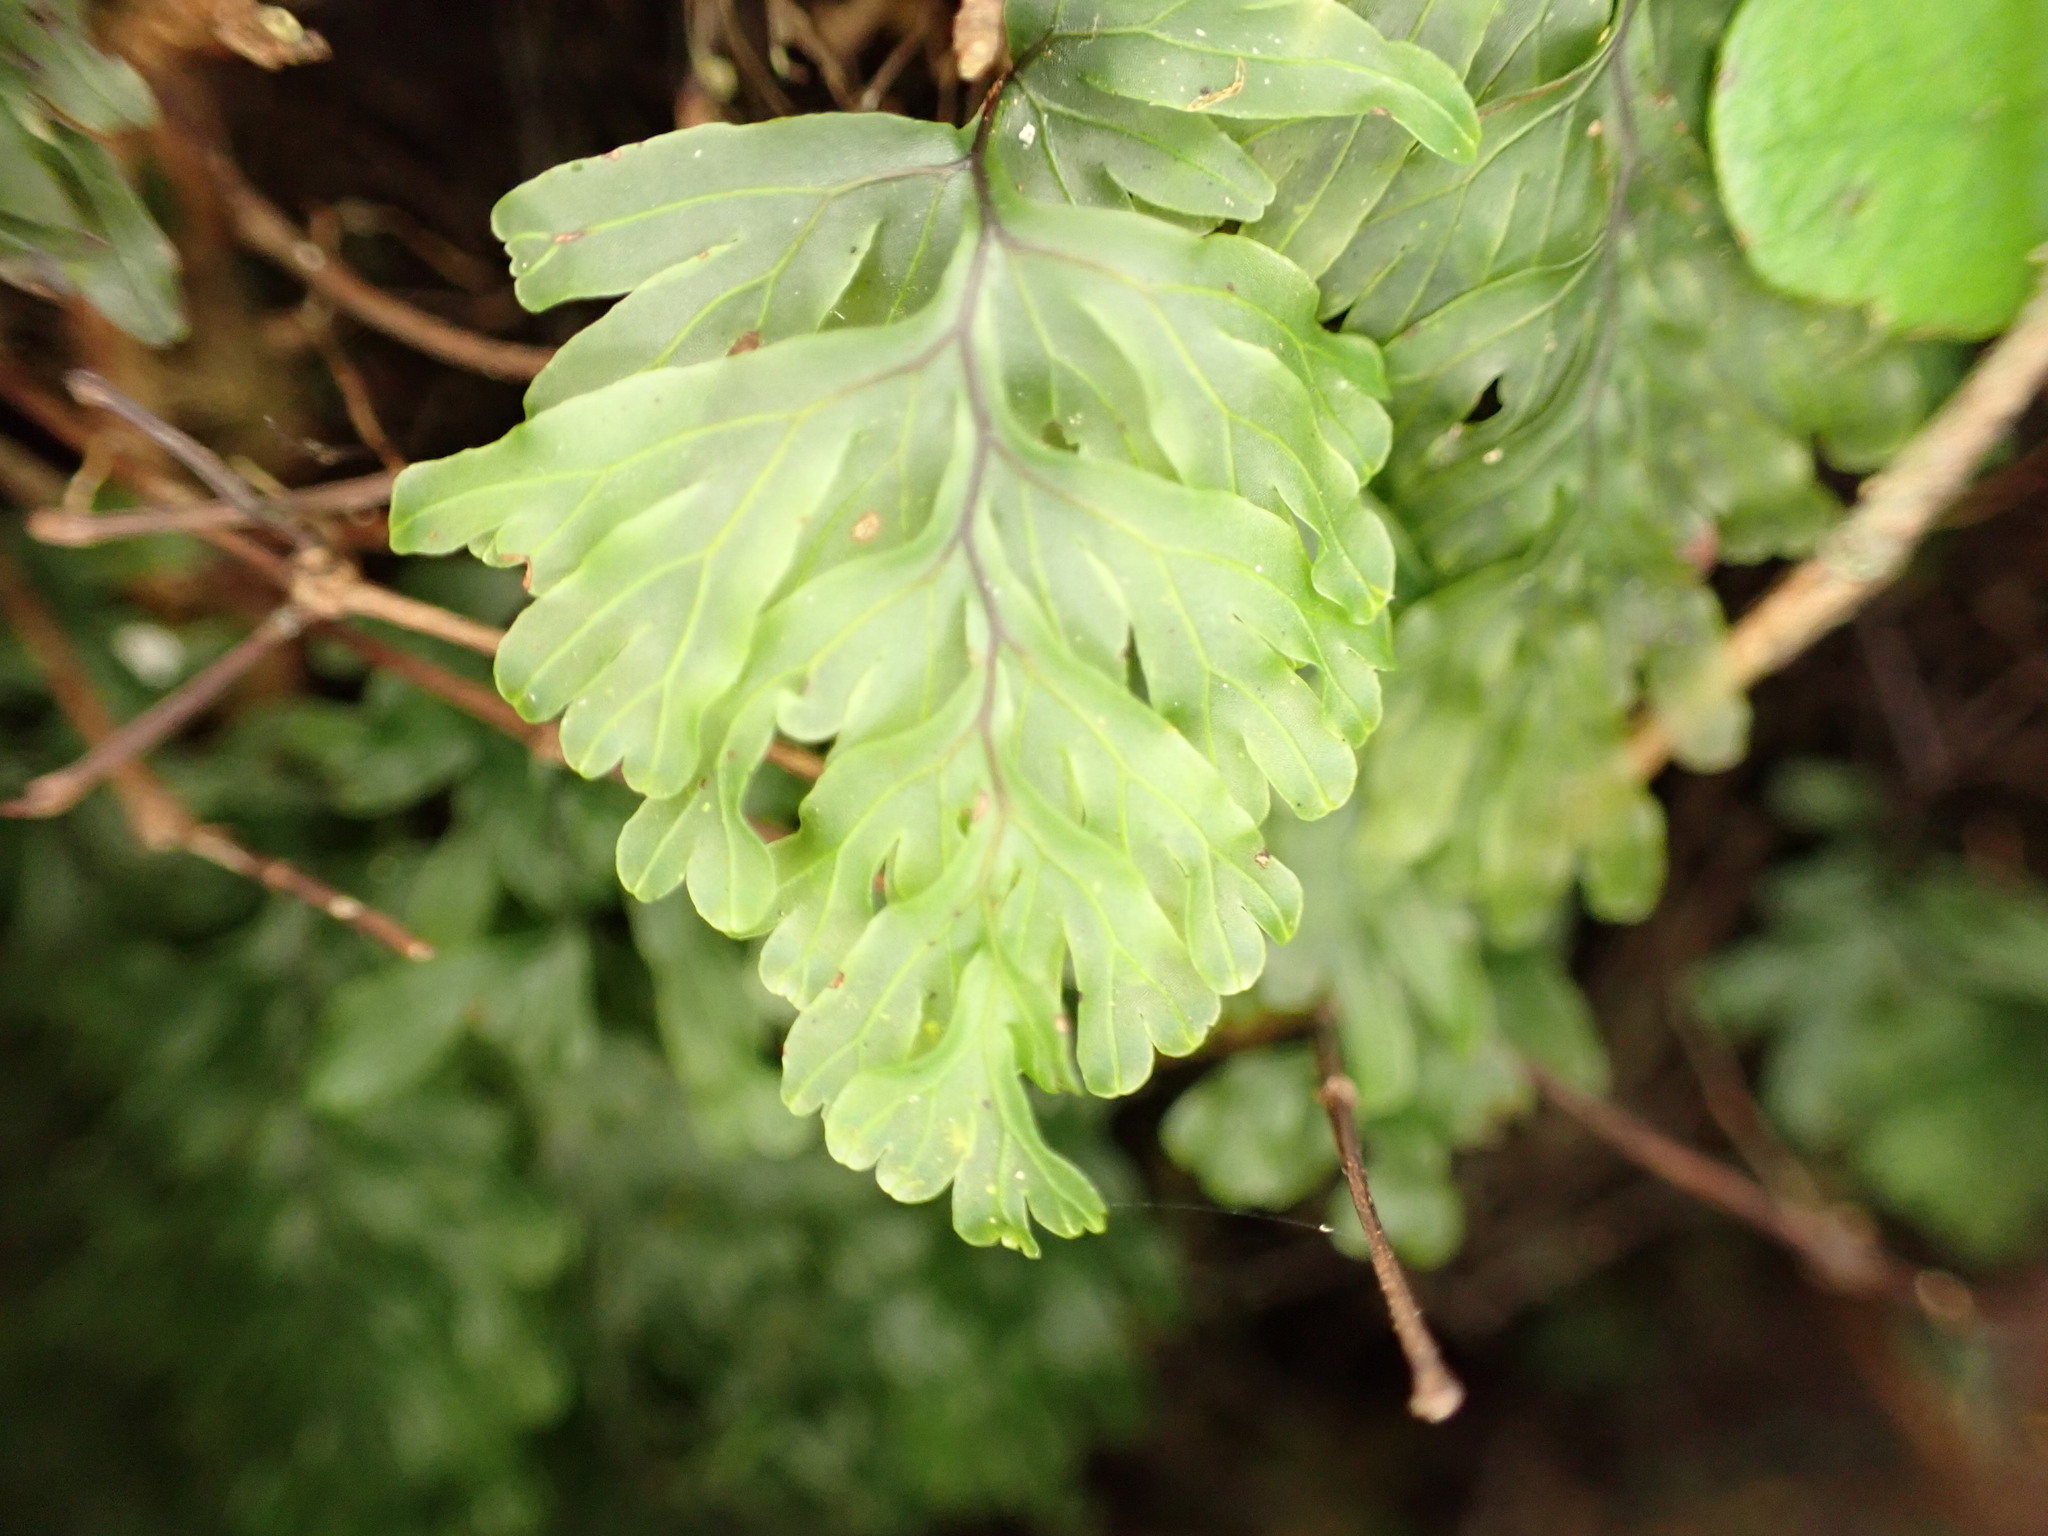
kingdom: Plantae
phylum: Tracheophyta
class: Polypodiopsida
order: Hymenophyllales
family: Hymenophyllaceae
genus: Hymenophyllum
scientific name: Hymenophyllum rarum
